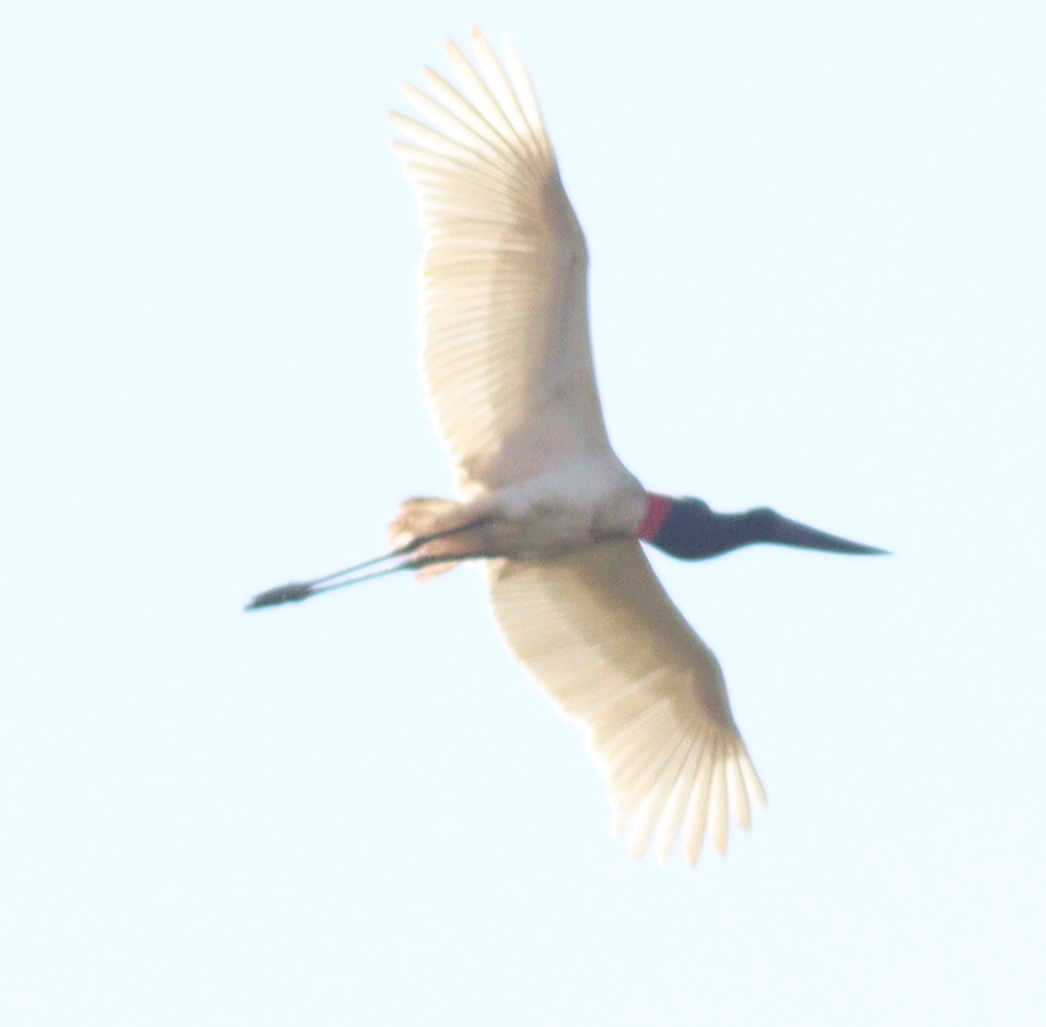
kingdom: Animalia
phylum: Chordata
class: Aves
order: Ciconiiformes
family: Ciconiidae
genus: Jabiru
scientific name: Jabiru mycteria
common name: Jabiru
